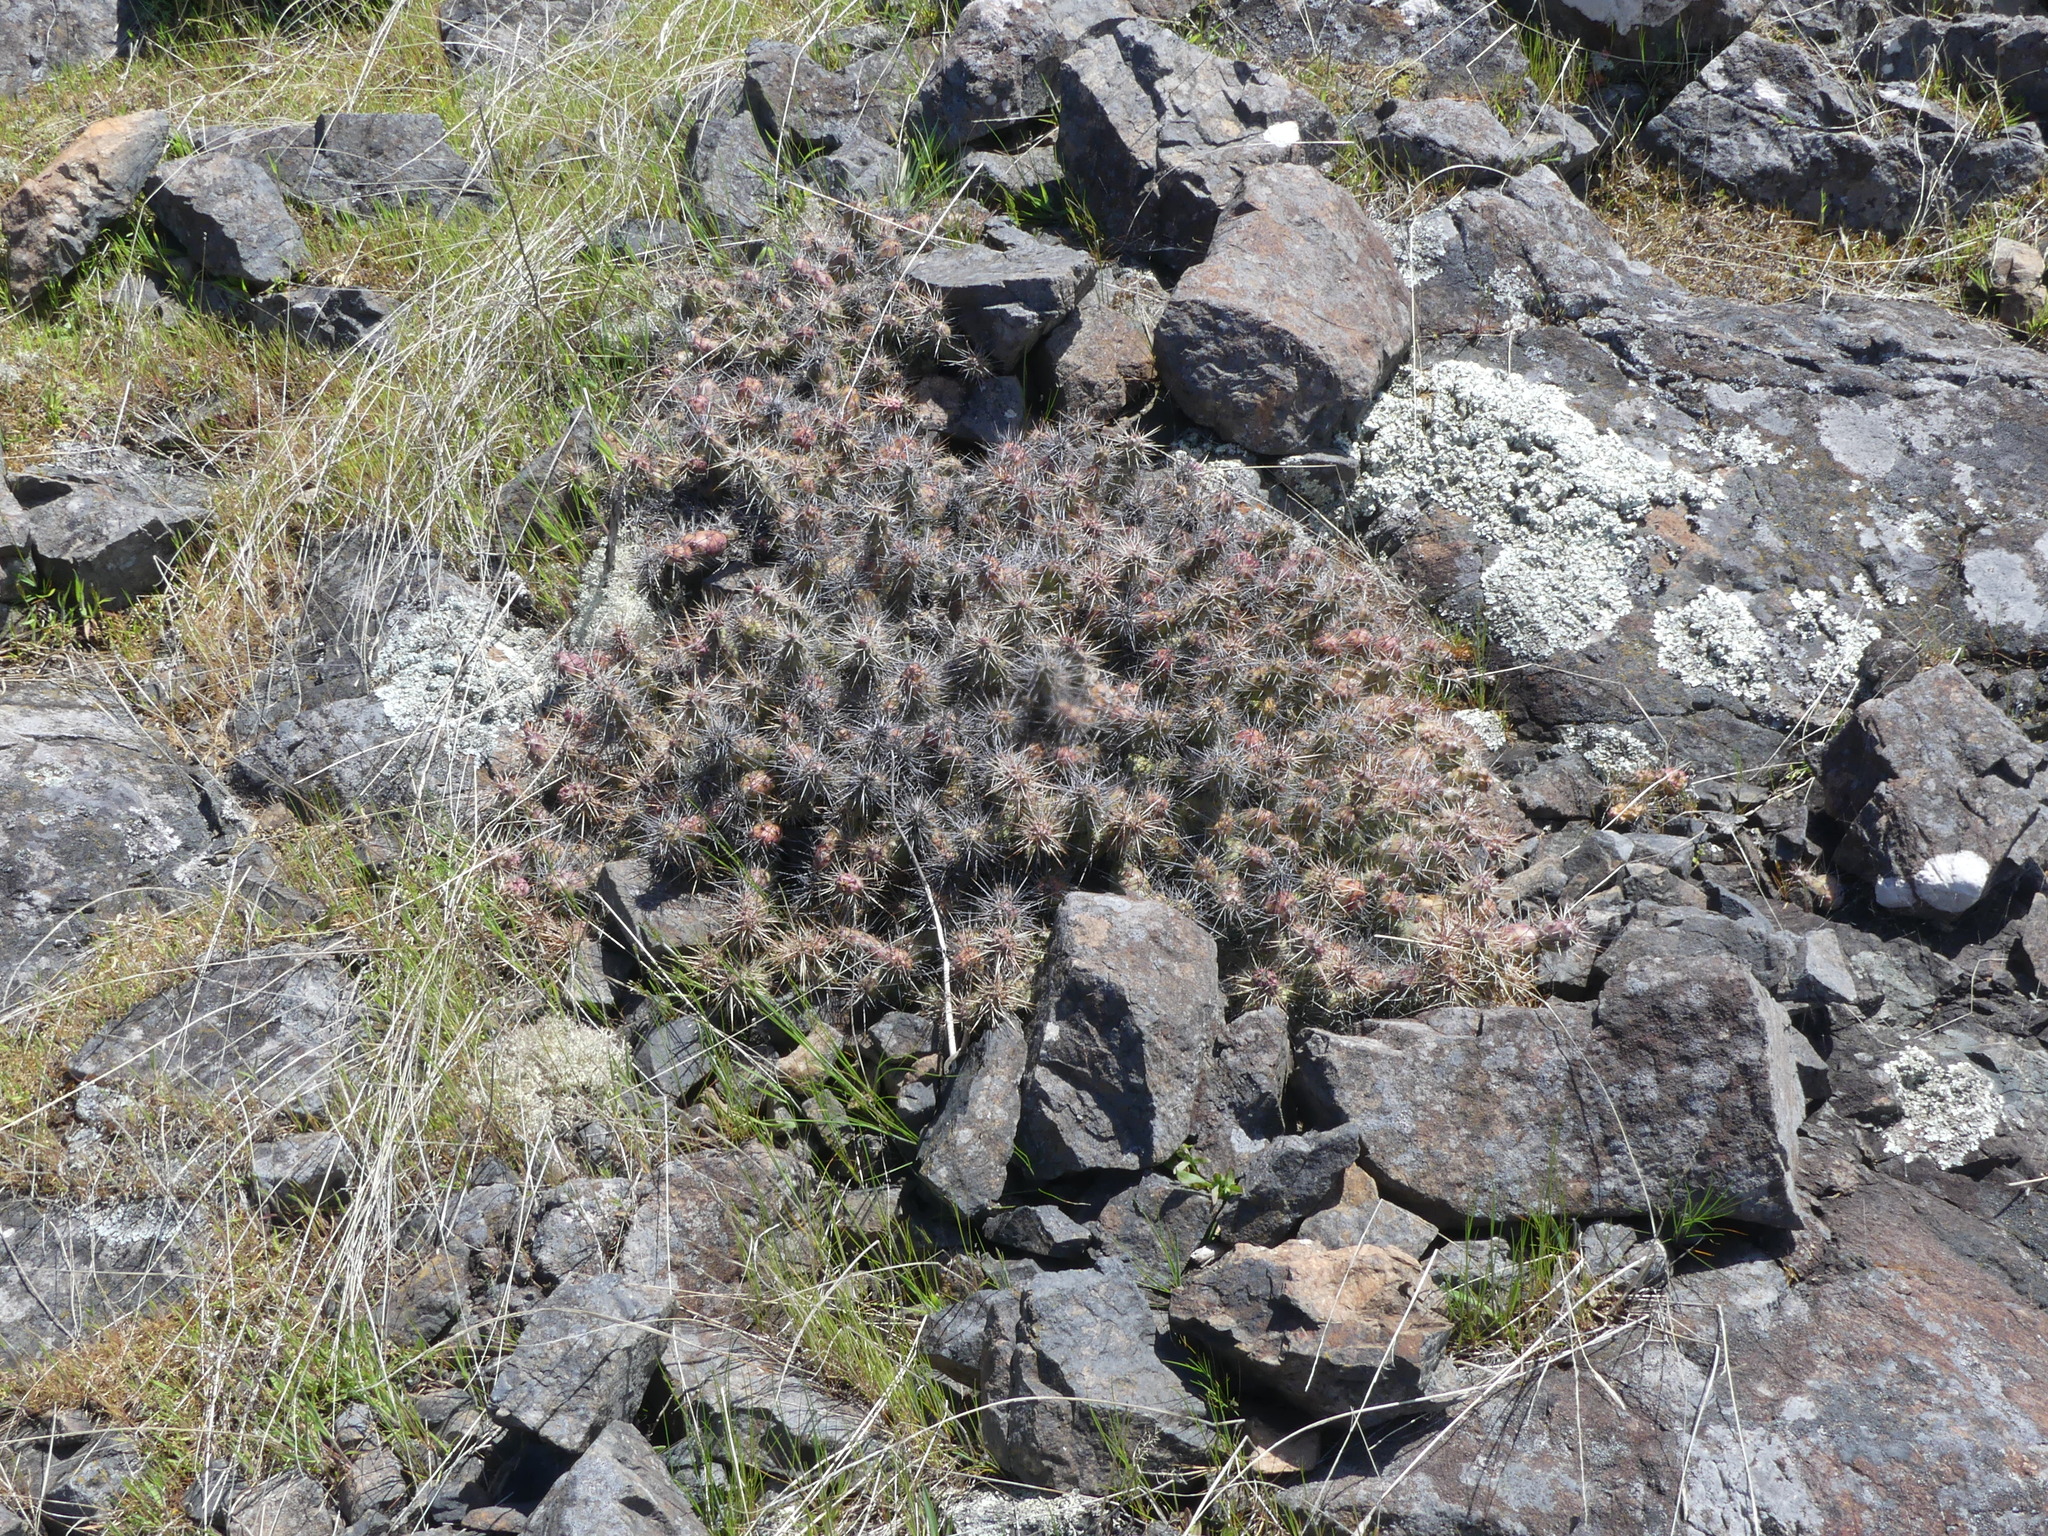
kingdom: Plantae
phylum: Tracheophyta
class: Magnoliopsida
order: Caryophyllales
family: Cactaceae
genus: Opuntia
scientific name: Opuntia fragilis
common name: Brittle cactus
